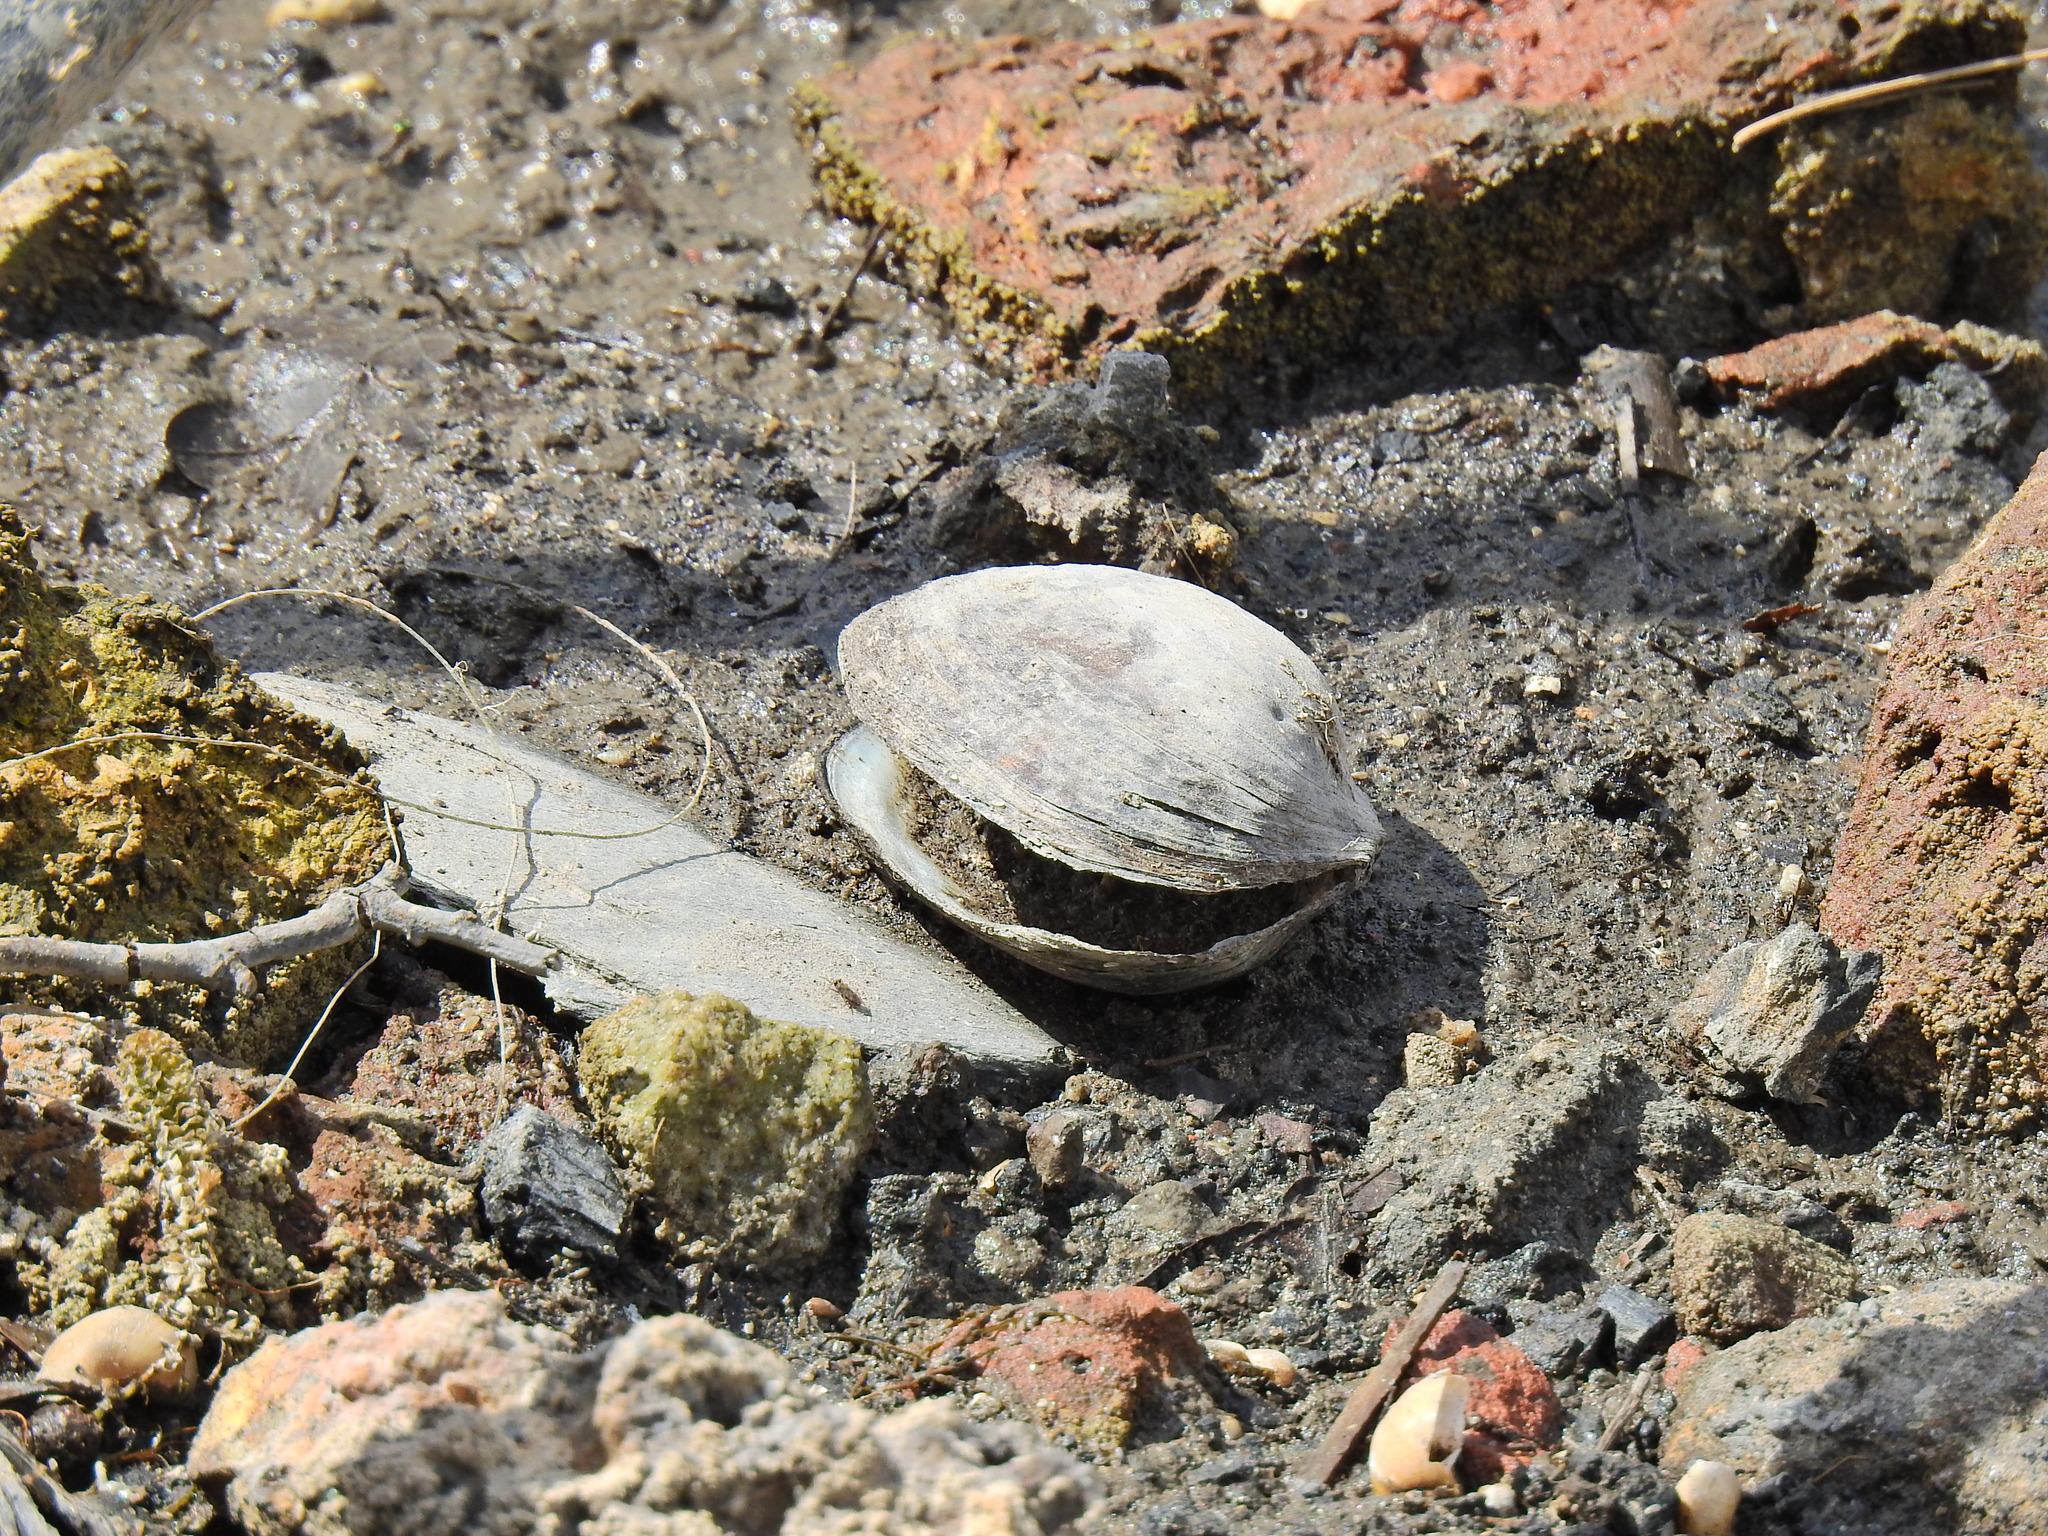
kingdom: Animalia
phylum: Mollusca
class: Bivalvia
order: Unionida
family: Unionidae
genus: Anodonta
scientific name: Anodonta anatina
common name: Duck mussel
